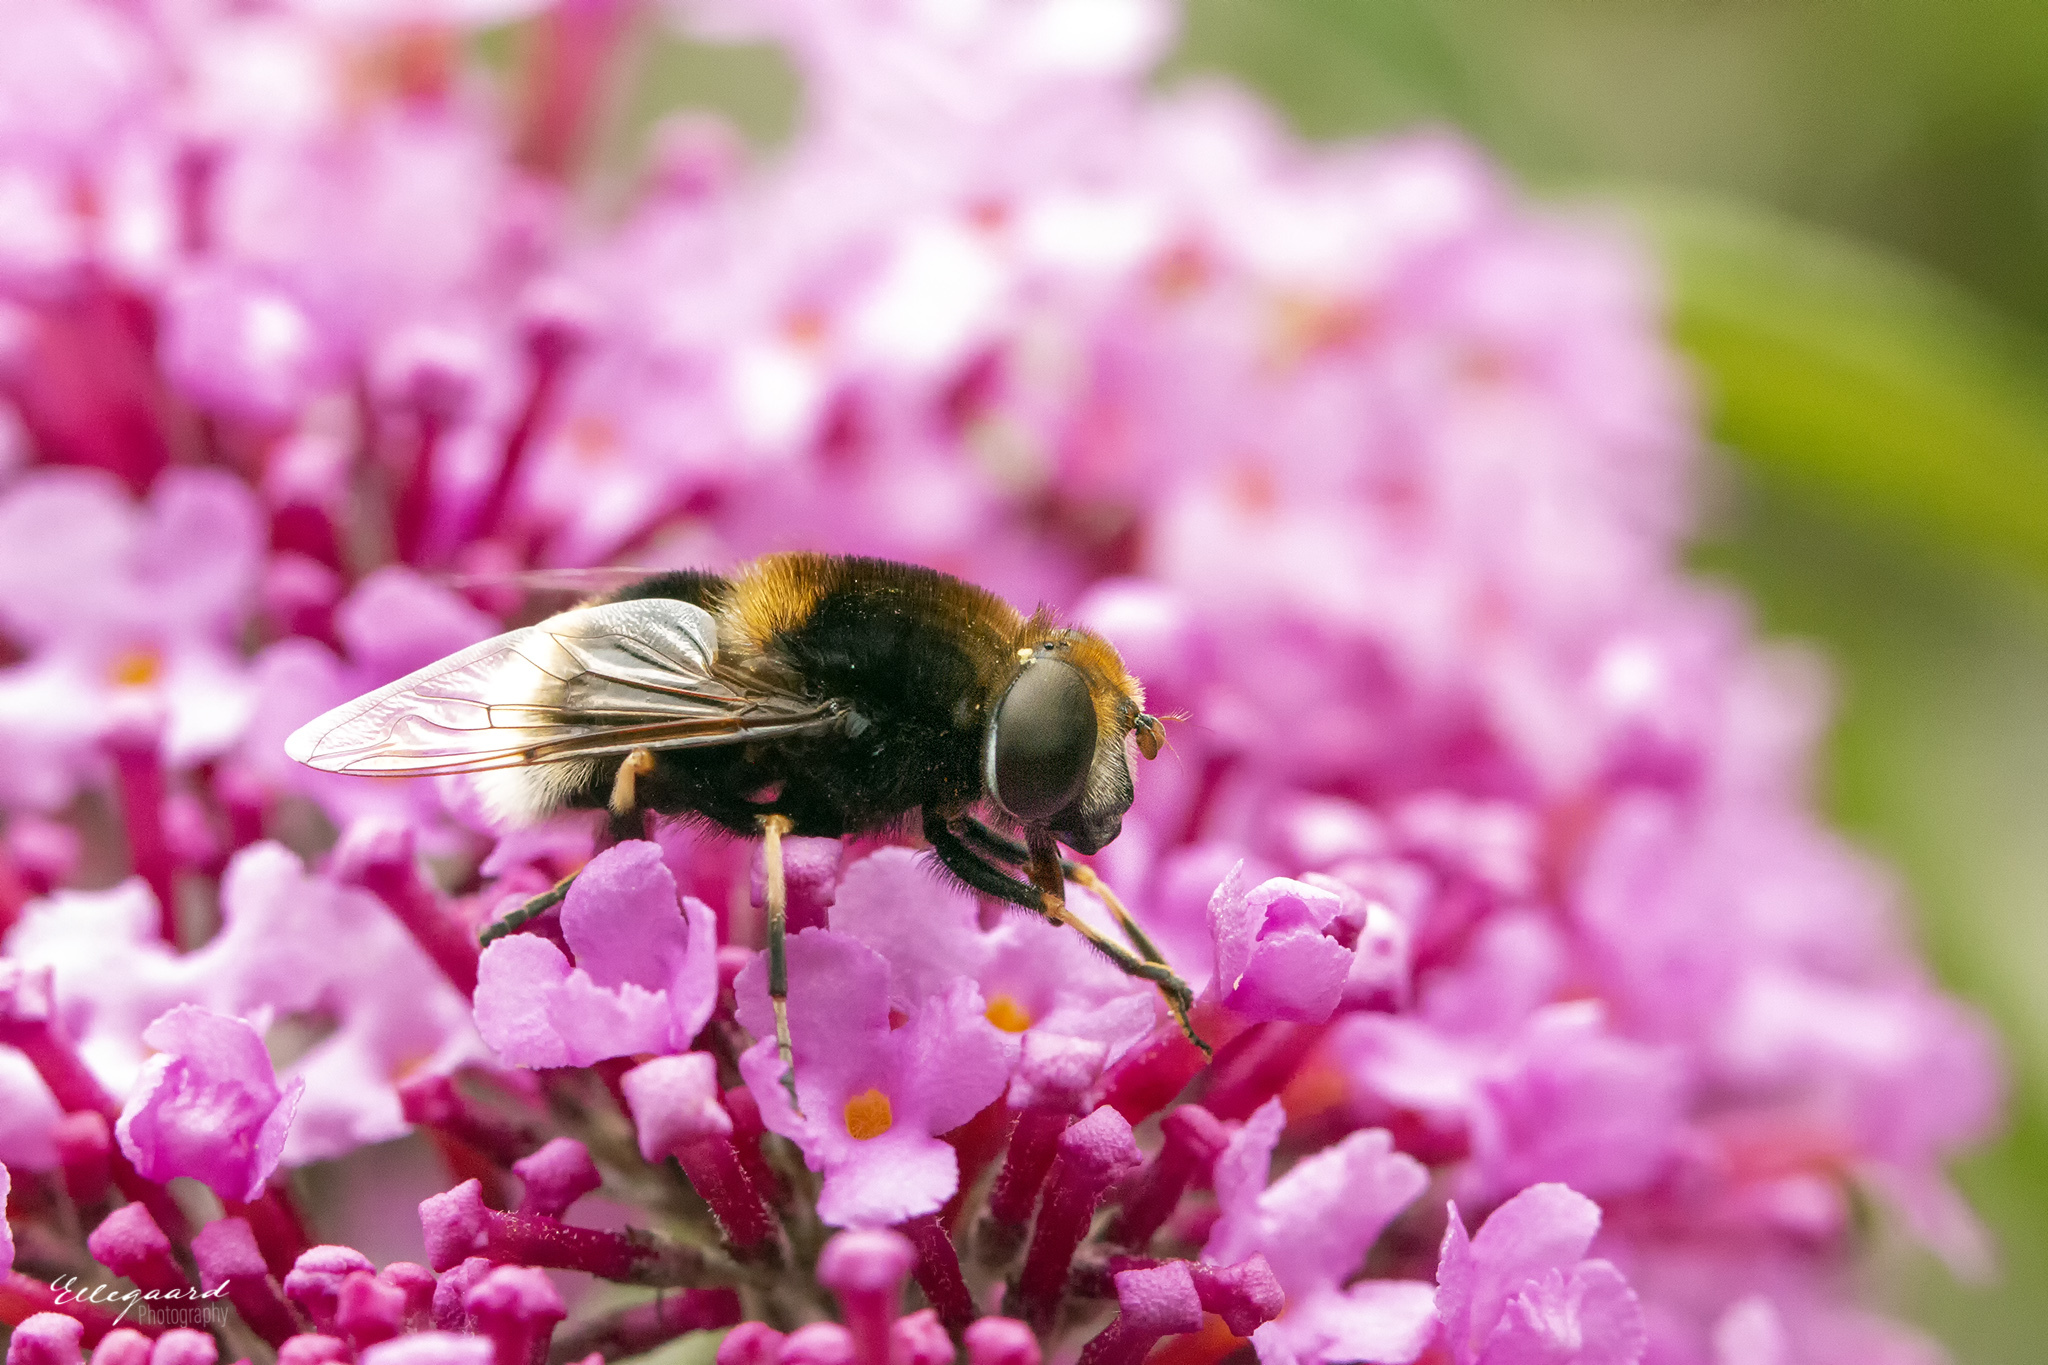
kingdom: Animalia
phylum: Arthropoda
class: Insecta
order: Diptera
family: Syrphidae
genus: Eristalis
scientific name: Eristalis intricaria
